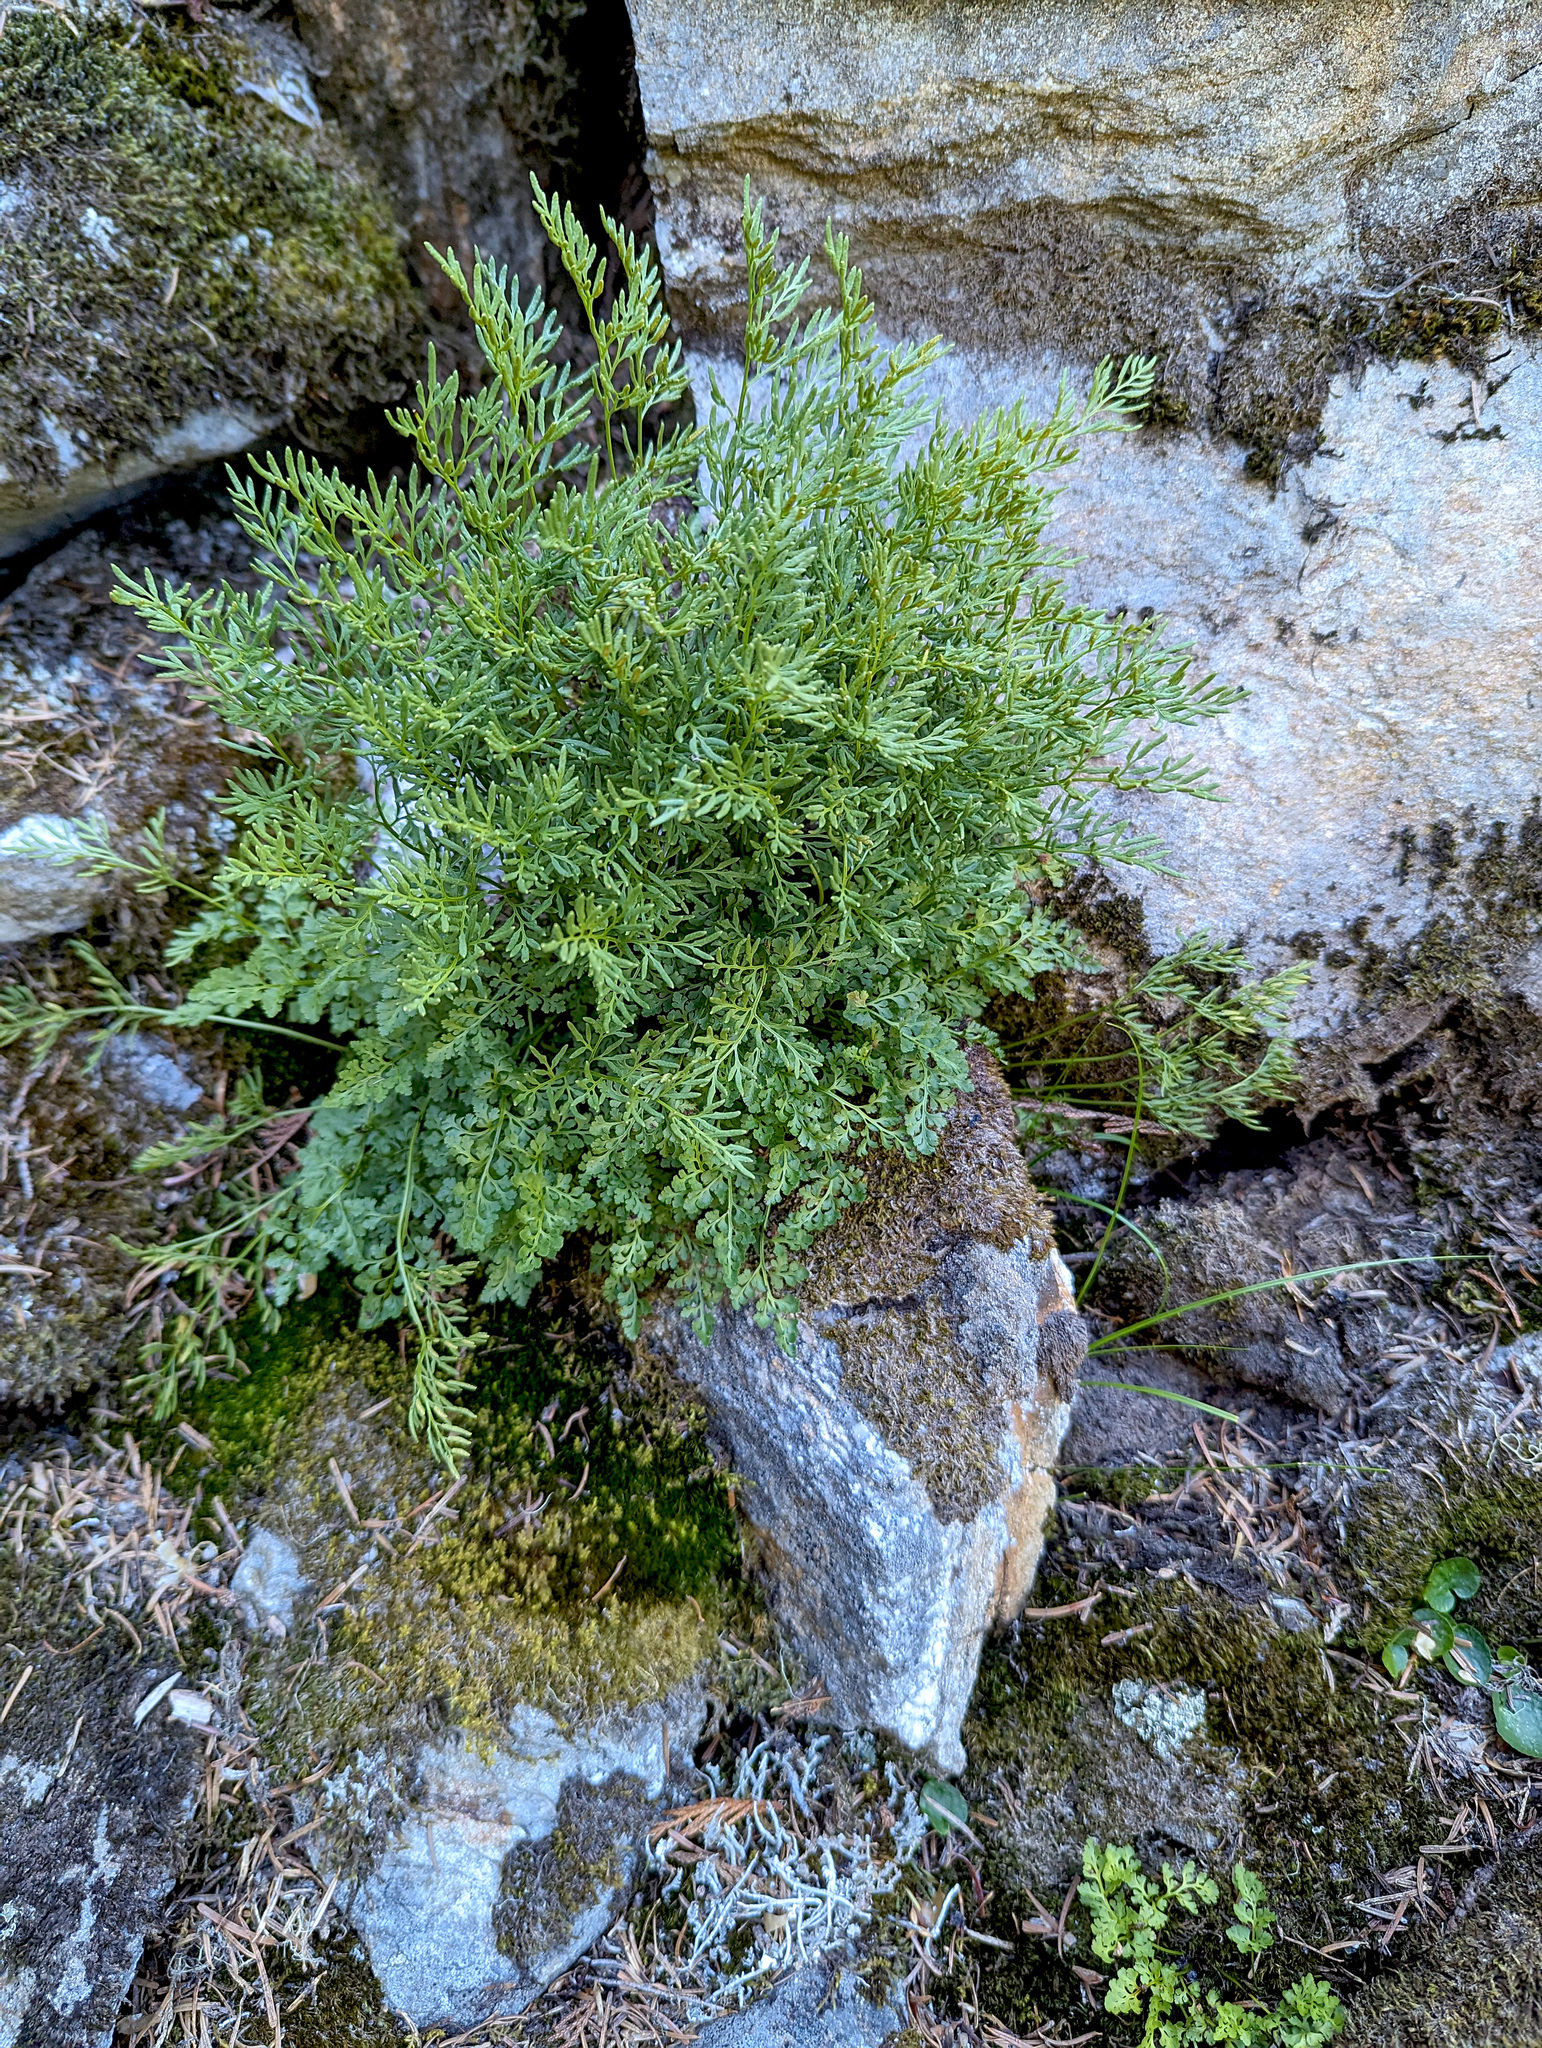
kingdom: Plantae
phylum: Tracheophyta
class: Polypodiopsida
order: Polypodiales
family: Pteridaceae
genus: Cryptogramma
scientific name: Cryptogramma cascadensis
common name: Cascade parsley fern
